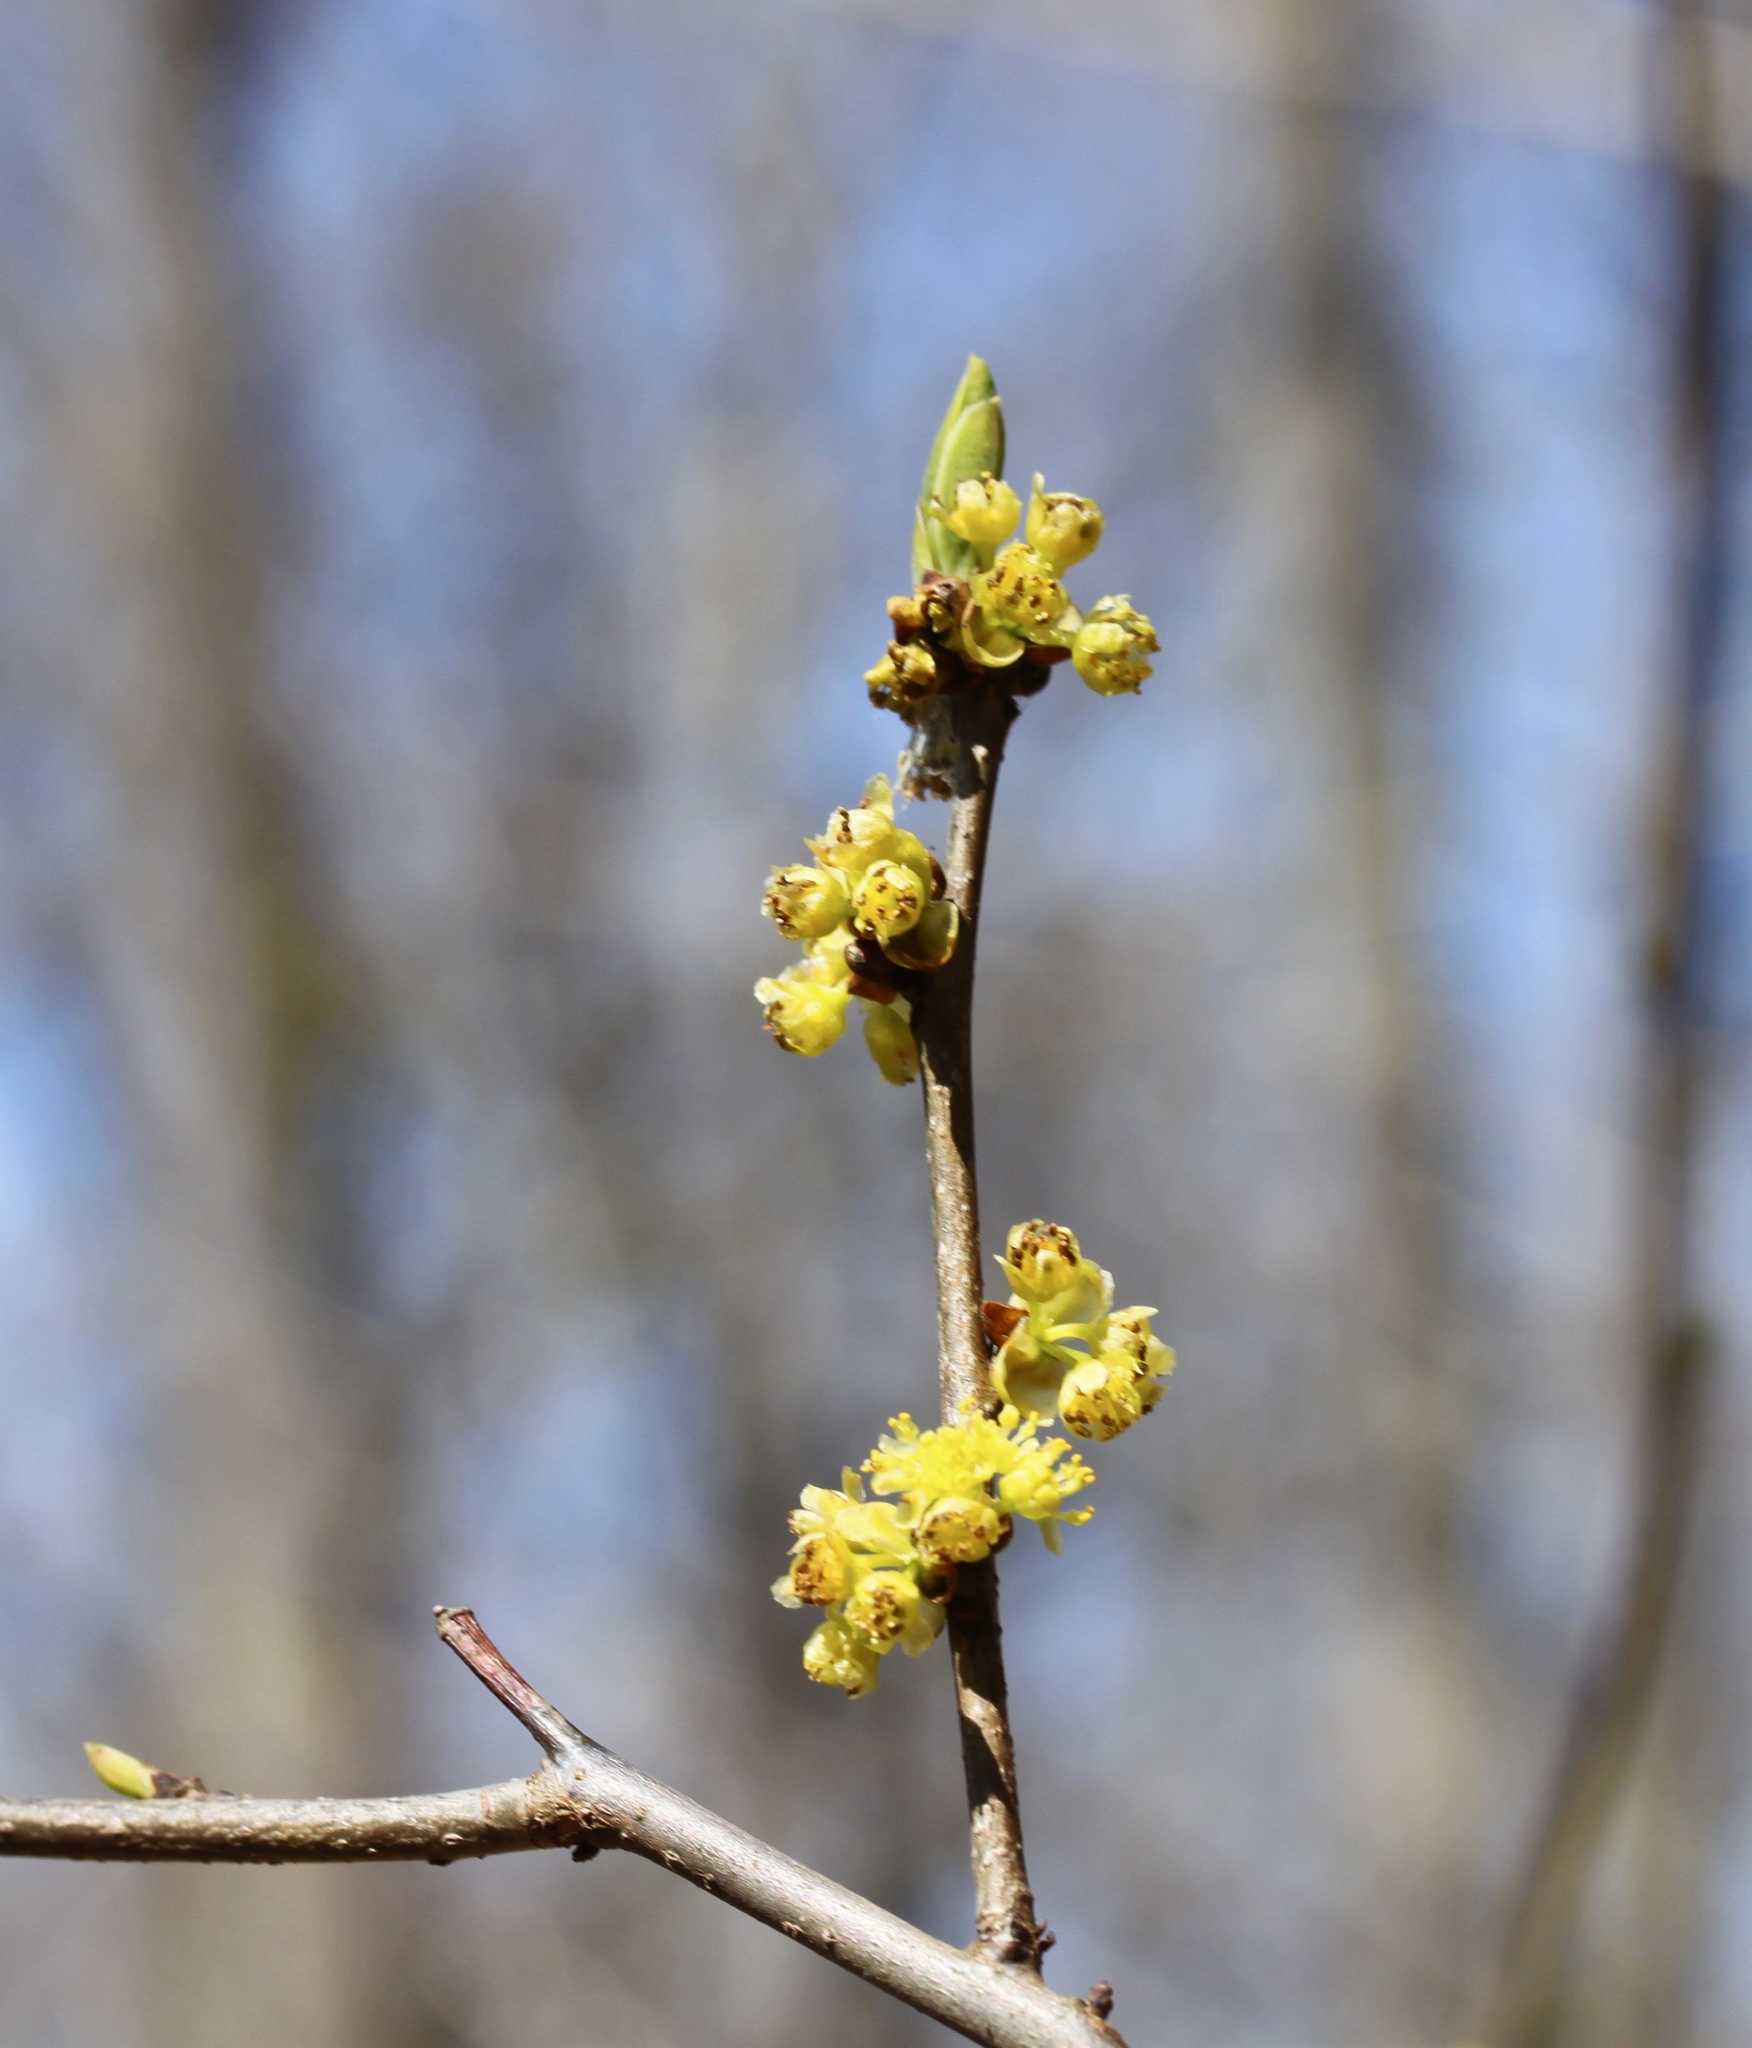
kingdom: Plantae
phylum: Tracheophyta
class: Magnoliopsida
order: Laurales
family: Lauraceae
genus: Lindera
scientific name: Lindera benzoin
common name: Spicebush
